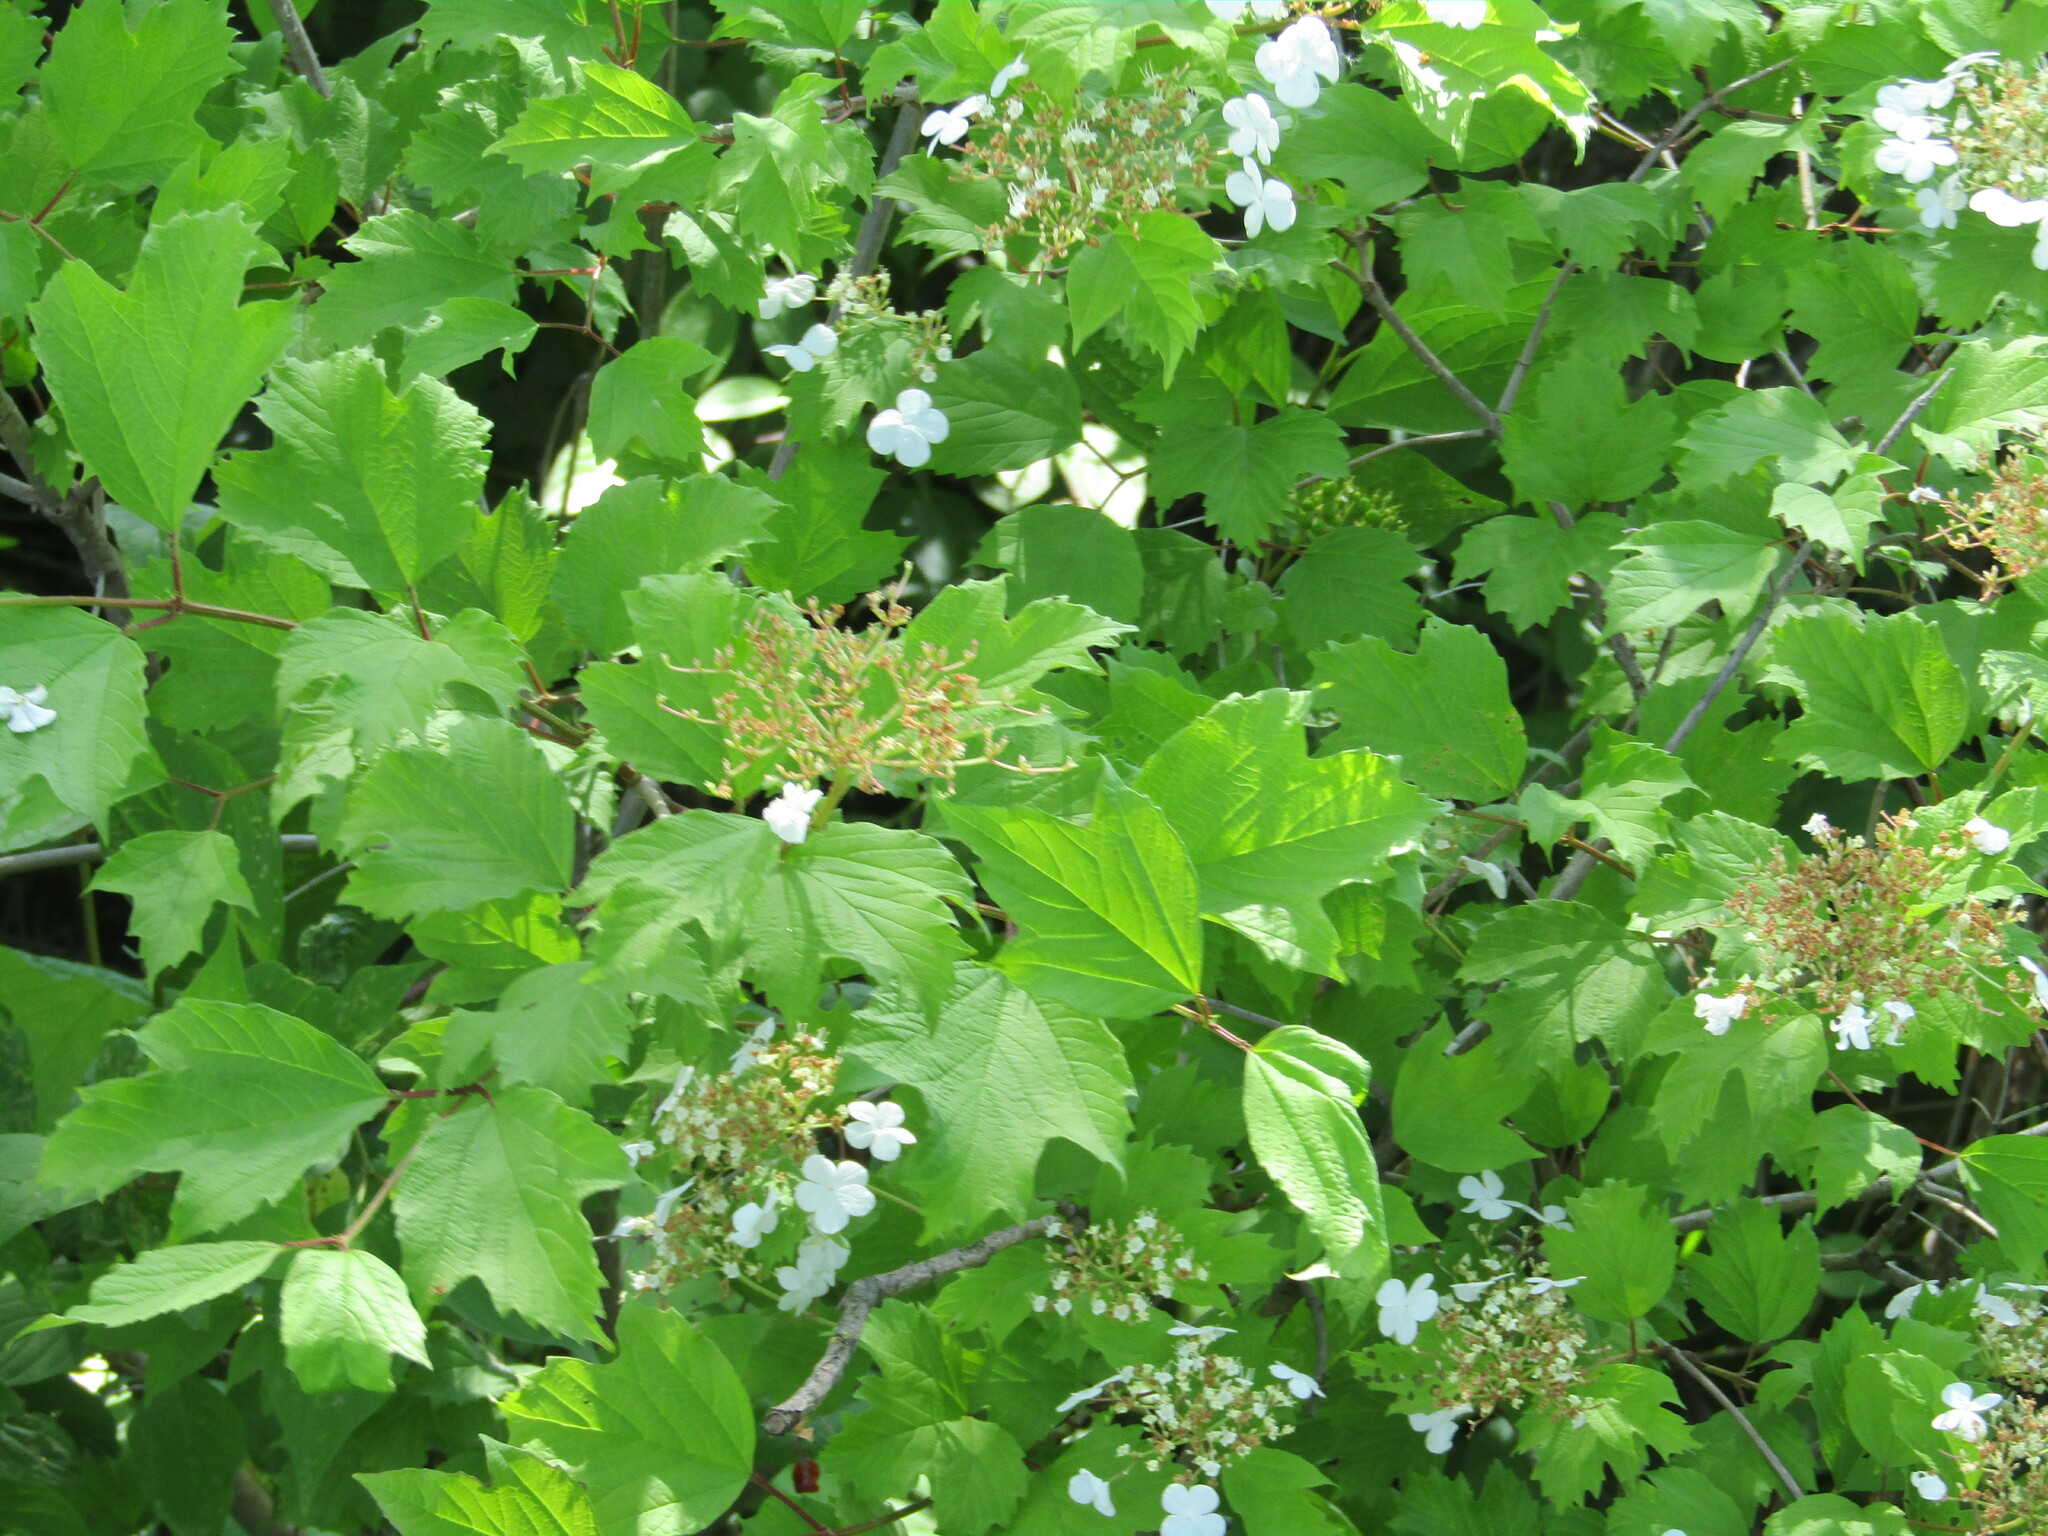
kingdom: Plantae
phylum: Tracheophyta
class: Magnoliopsida
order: Dipsacales
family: Viburnaceae
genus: Viburnum
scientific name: Viburnum opulus
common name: Guelder-rose
